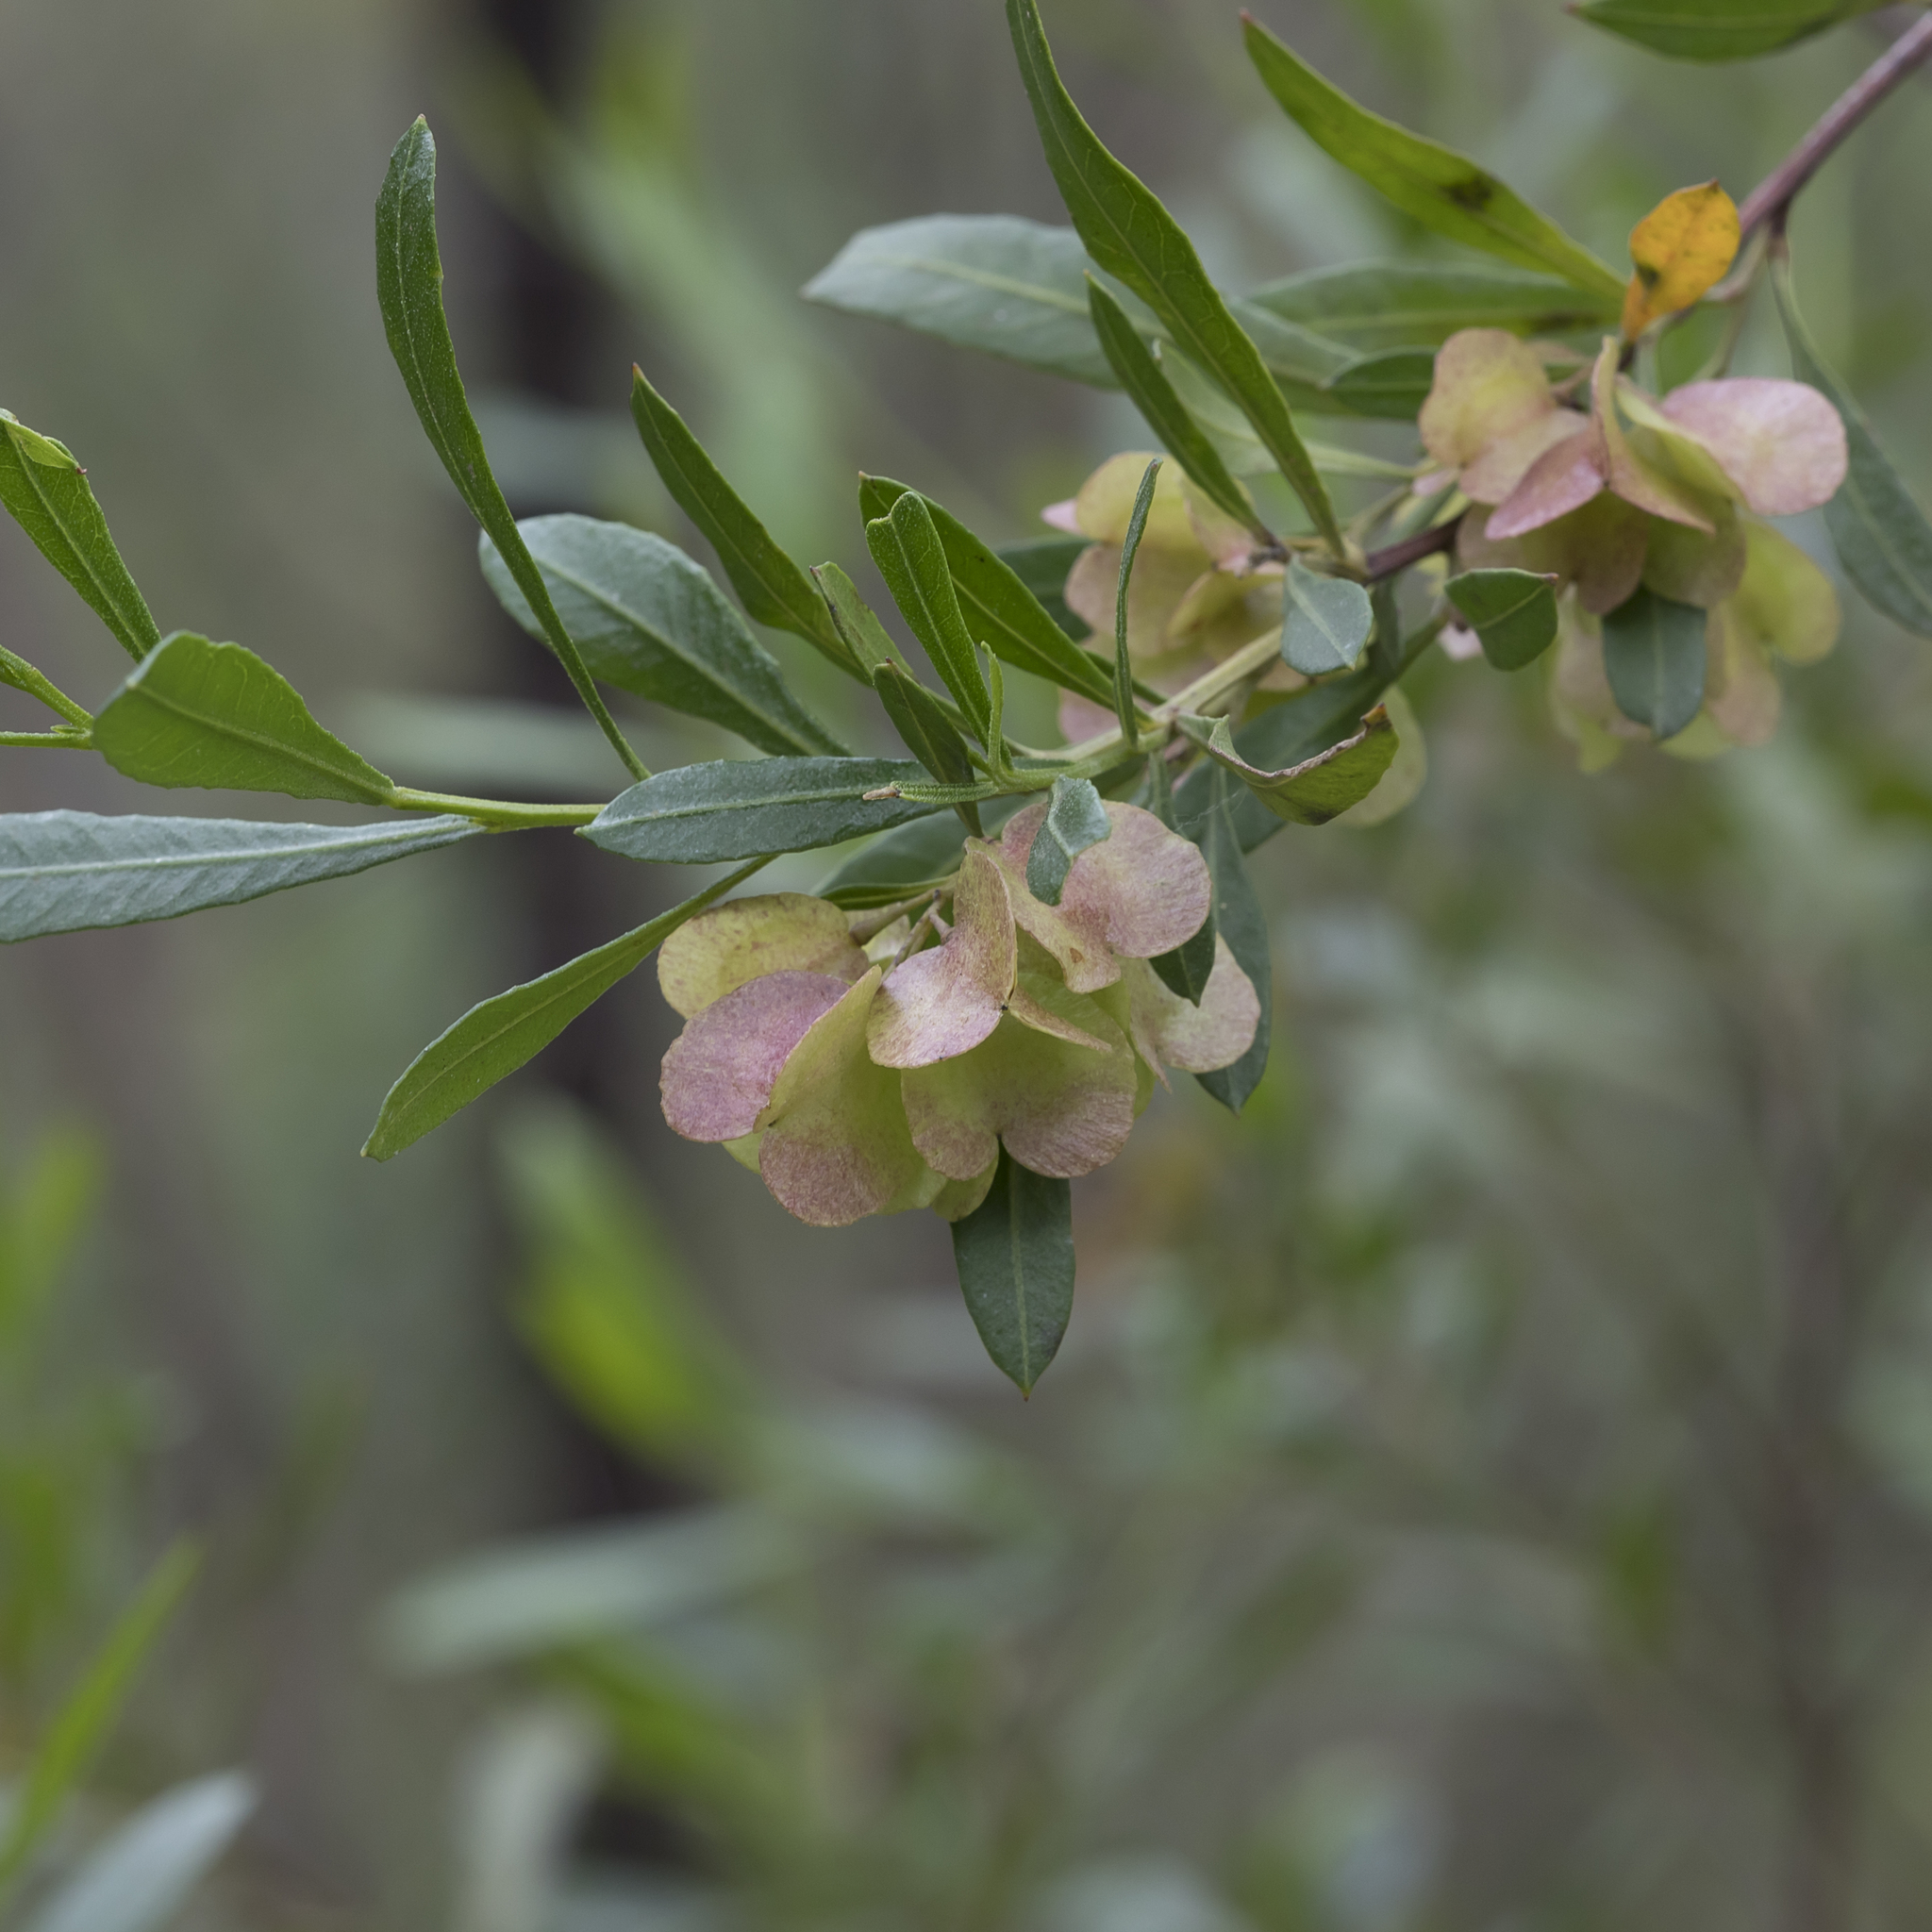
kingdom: Plantae
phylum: Tracheophyta
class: Magnoliopsida
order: Sapindales
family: Sapindaceae
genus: Dodonaea
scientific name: Dodonaea viscosa
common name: Hopbush
